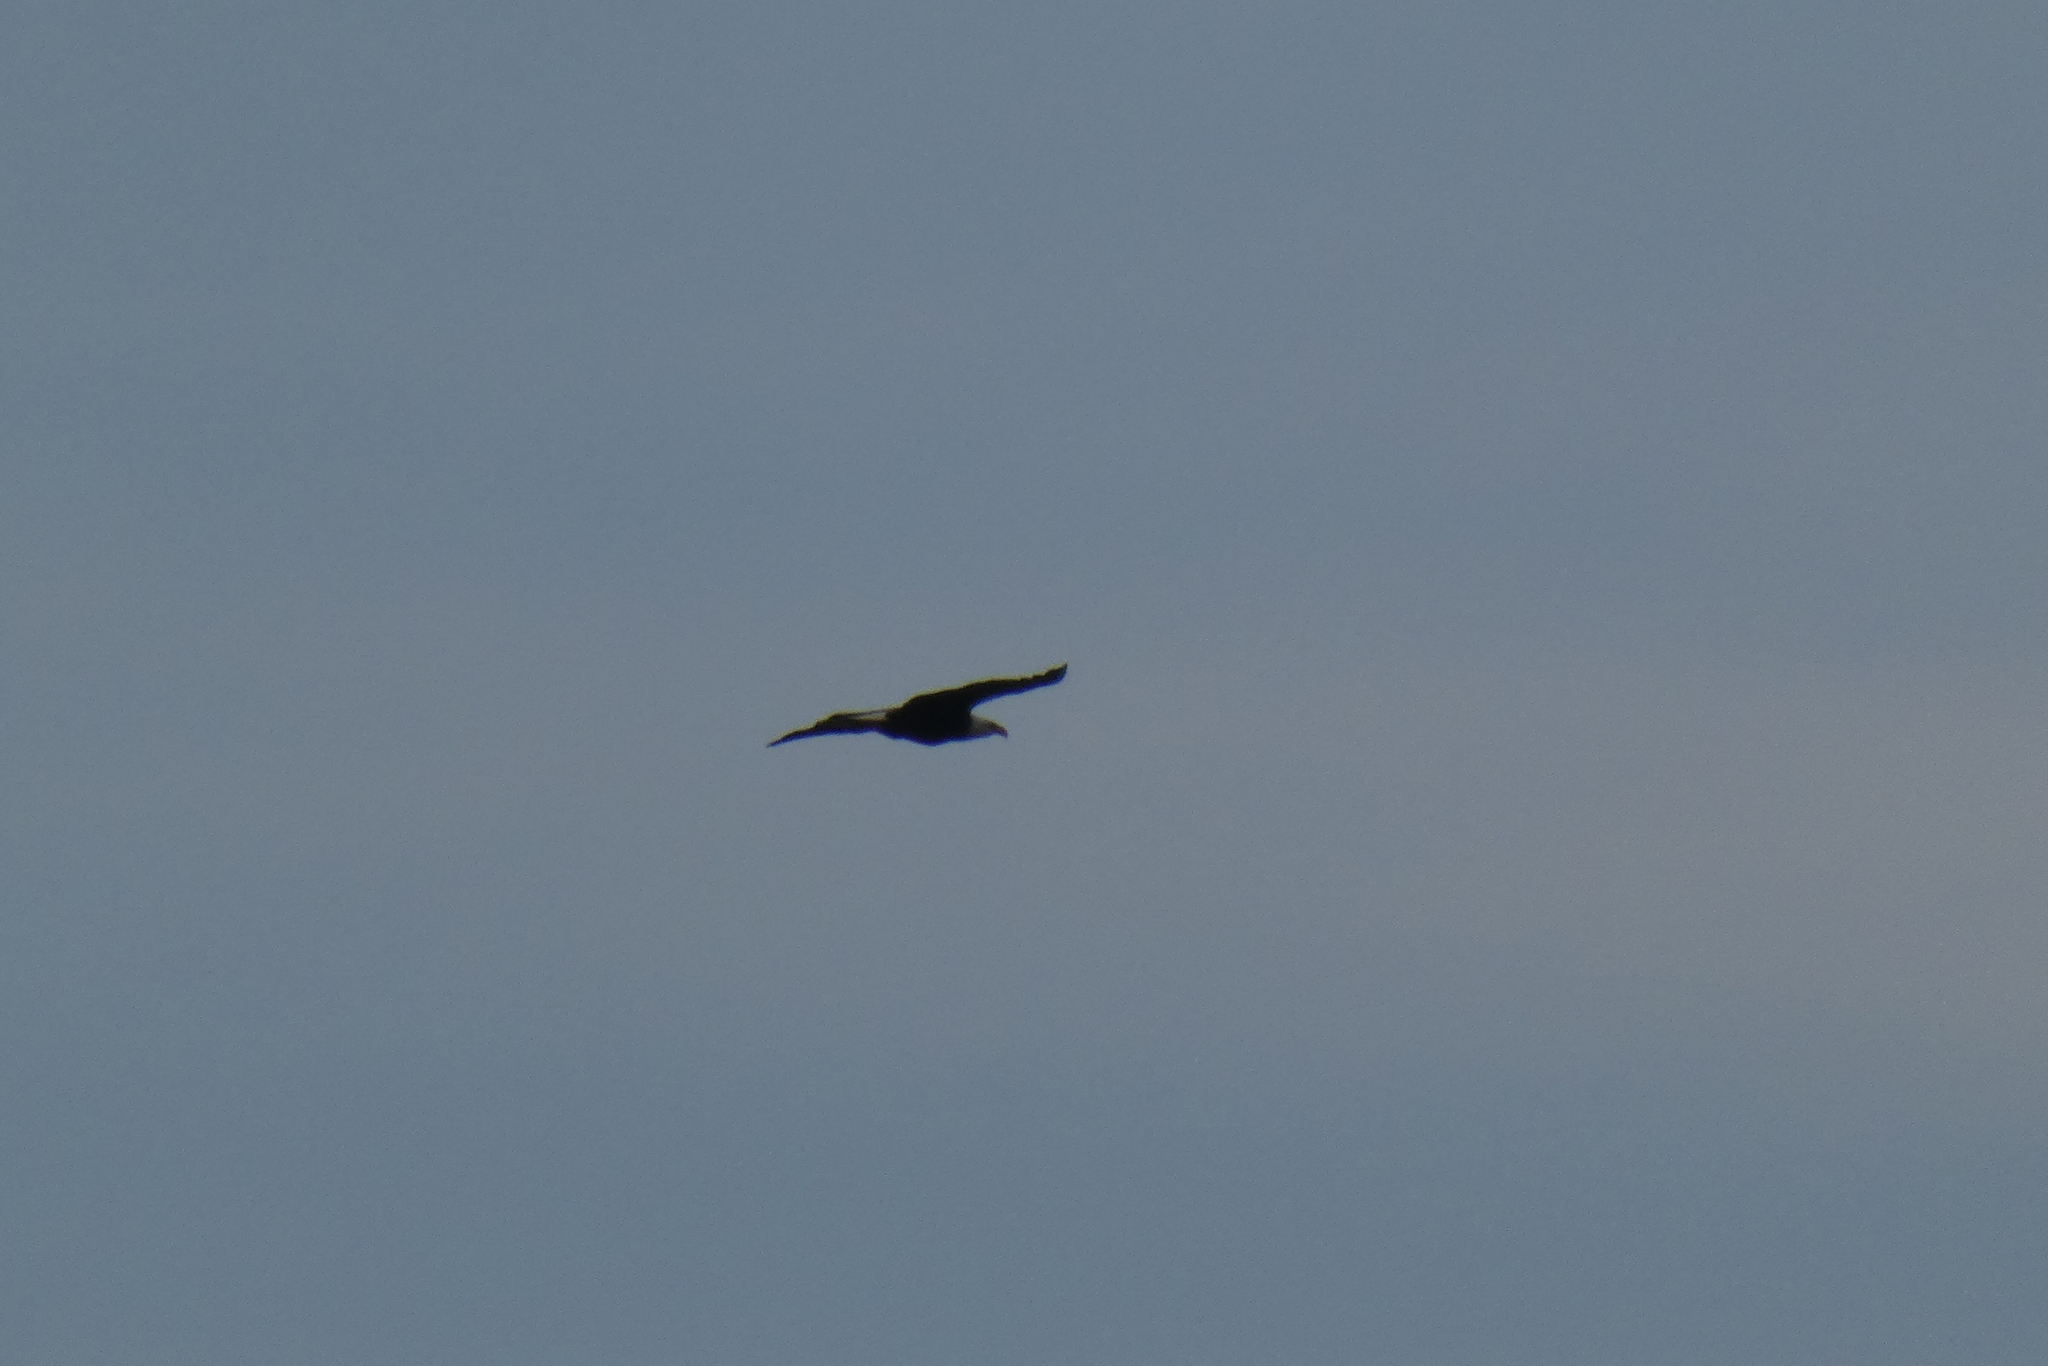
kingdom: Animalia
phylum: Chordata
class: Aves
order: Accipitriformes
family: Accipitridae
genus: Haliaeetus
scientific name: Haliaeetus leucocephalus
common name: Bald eagle
